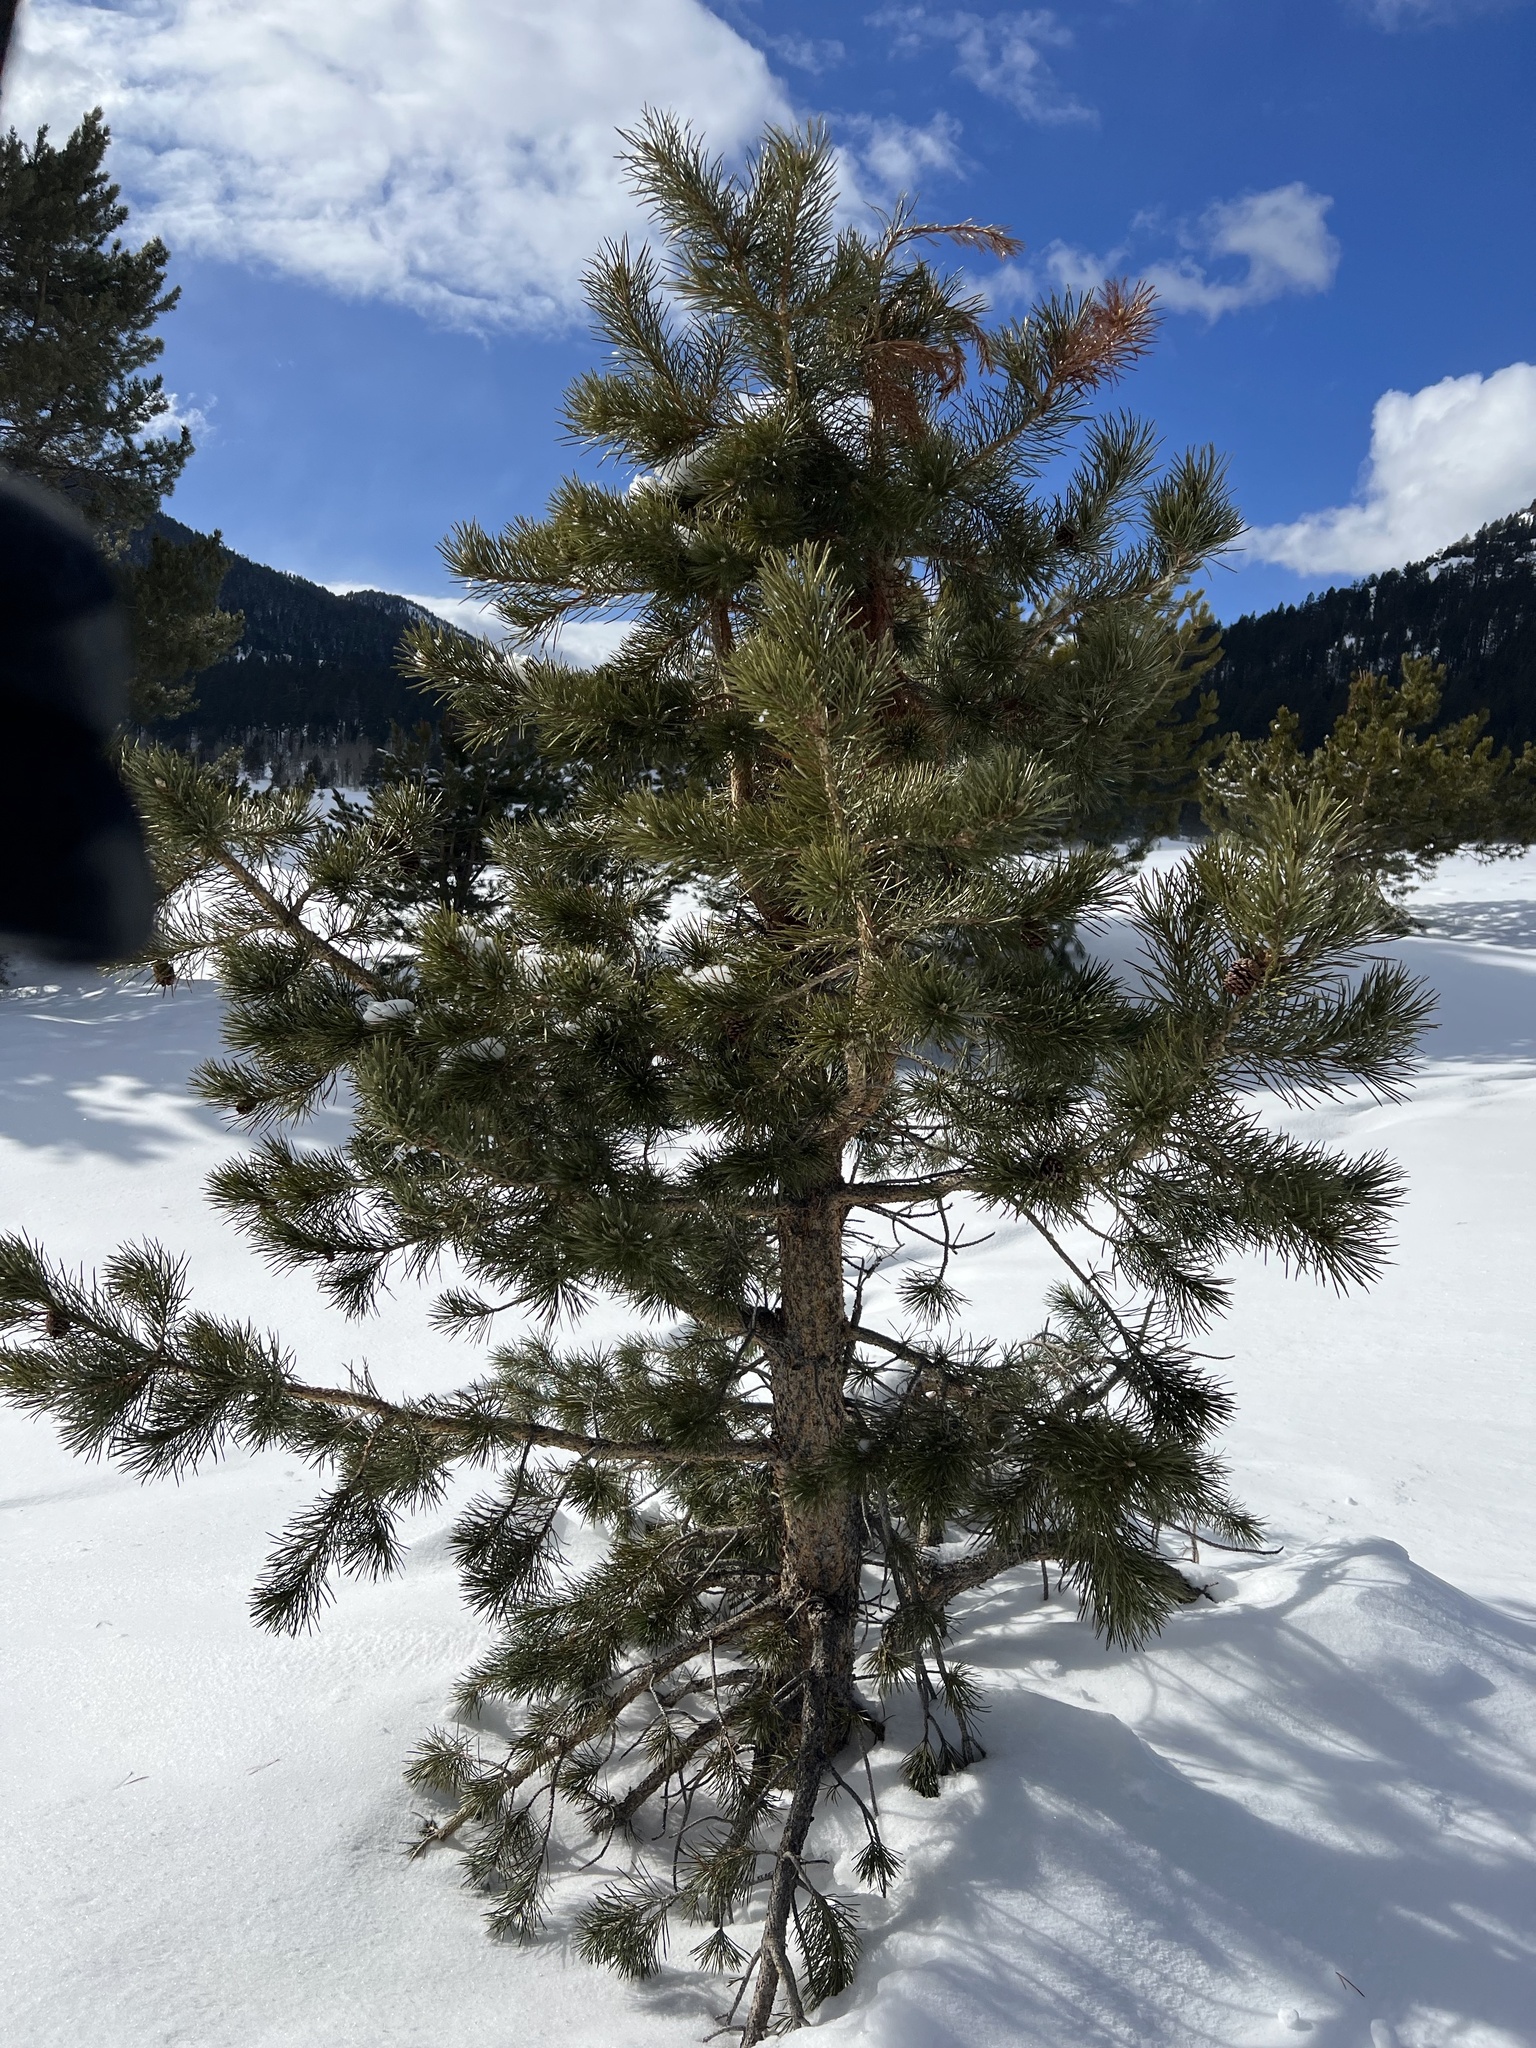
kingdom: Plantae
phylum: Tracheophyta
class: Pinopsida
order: Pinales
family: Pinaceae
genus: Pinus
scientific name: Pinus contorta
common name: Lodgepole pine
